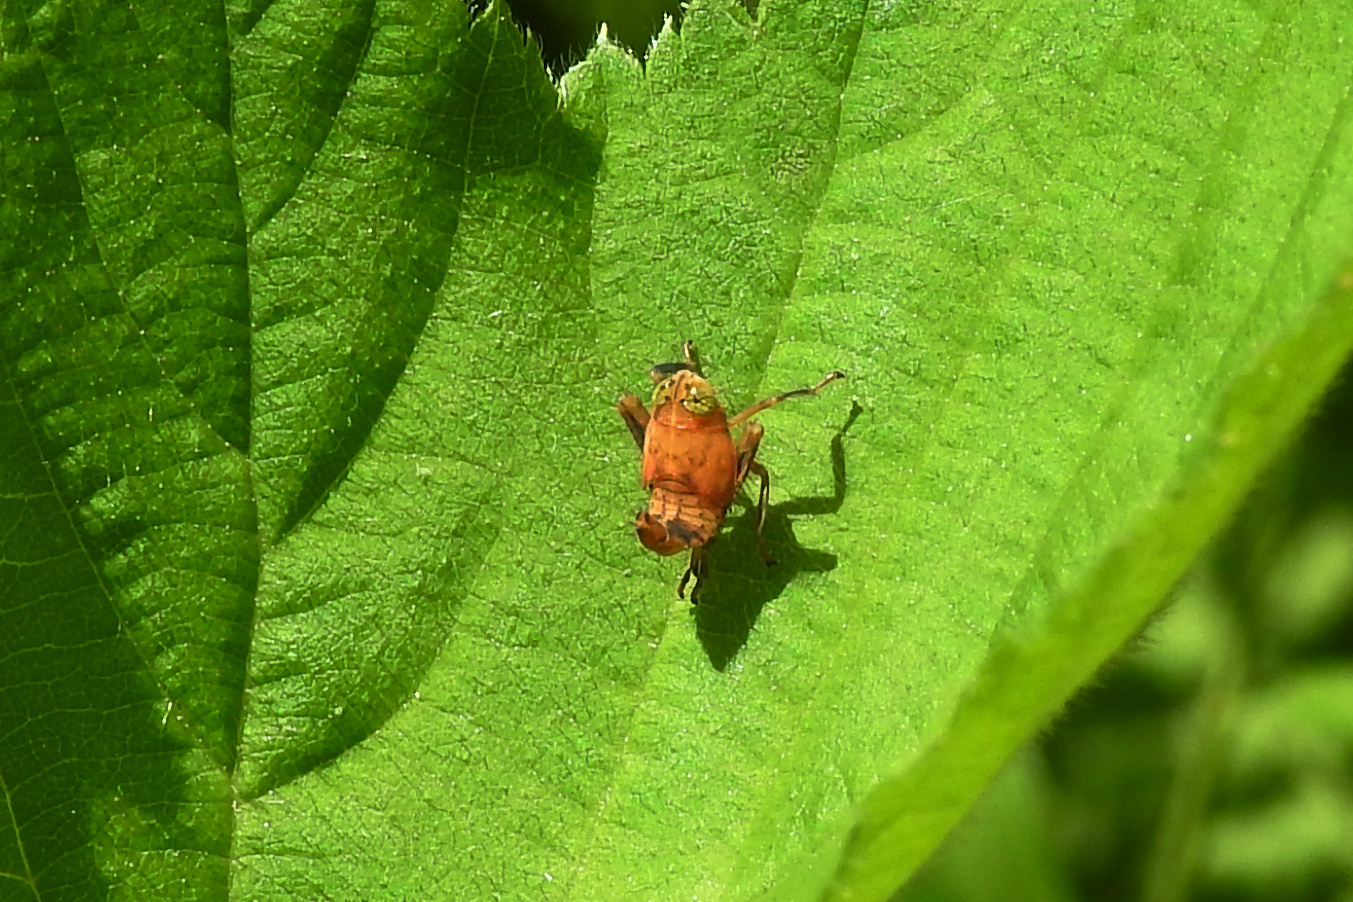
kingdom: Animalia
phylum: Arthropoda
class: Insecta
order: Hemiptera
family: Cicadellidae
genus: Jikradia
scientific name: Jikradia olitoria
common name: Coppery leafhopper
